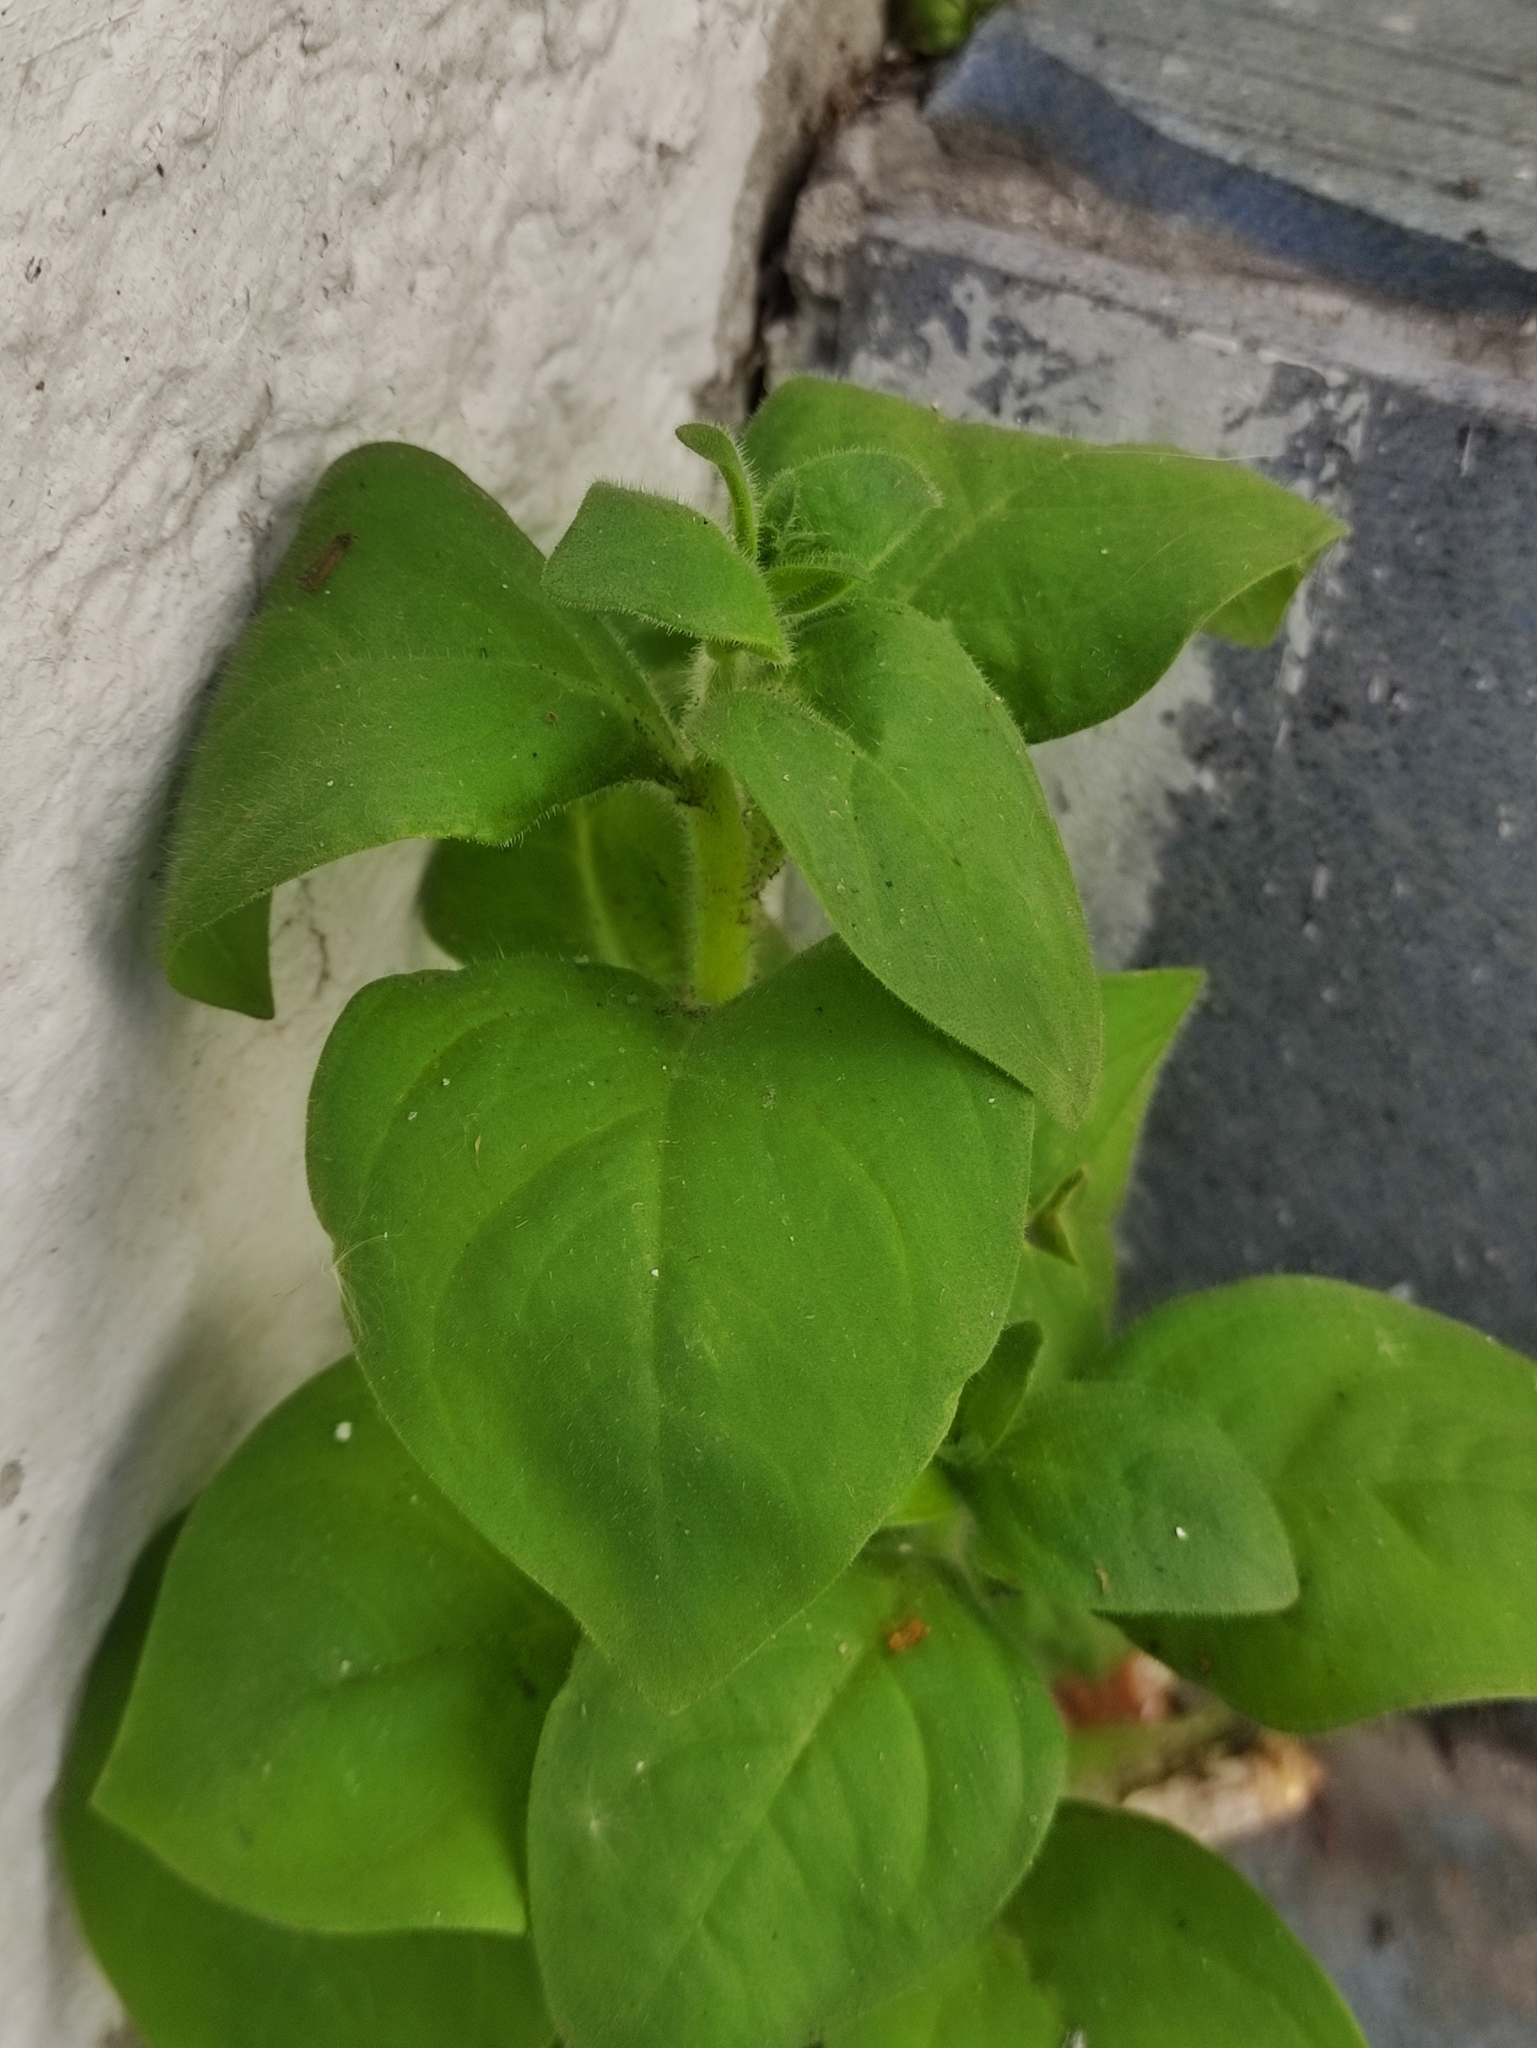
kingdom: Plantae
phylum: Tracheophyta
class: Magnoliopsida
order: Solanales
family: Solanaceae
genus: Petunia
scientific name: Petunia atkinsiana
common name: Petunia
